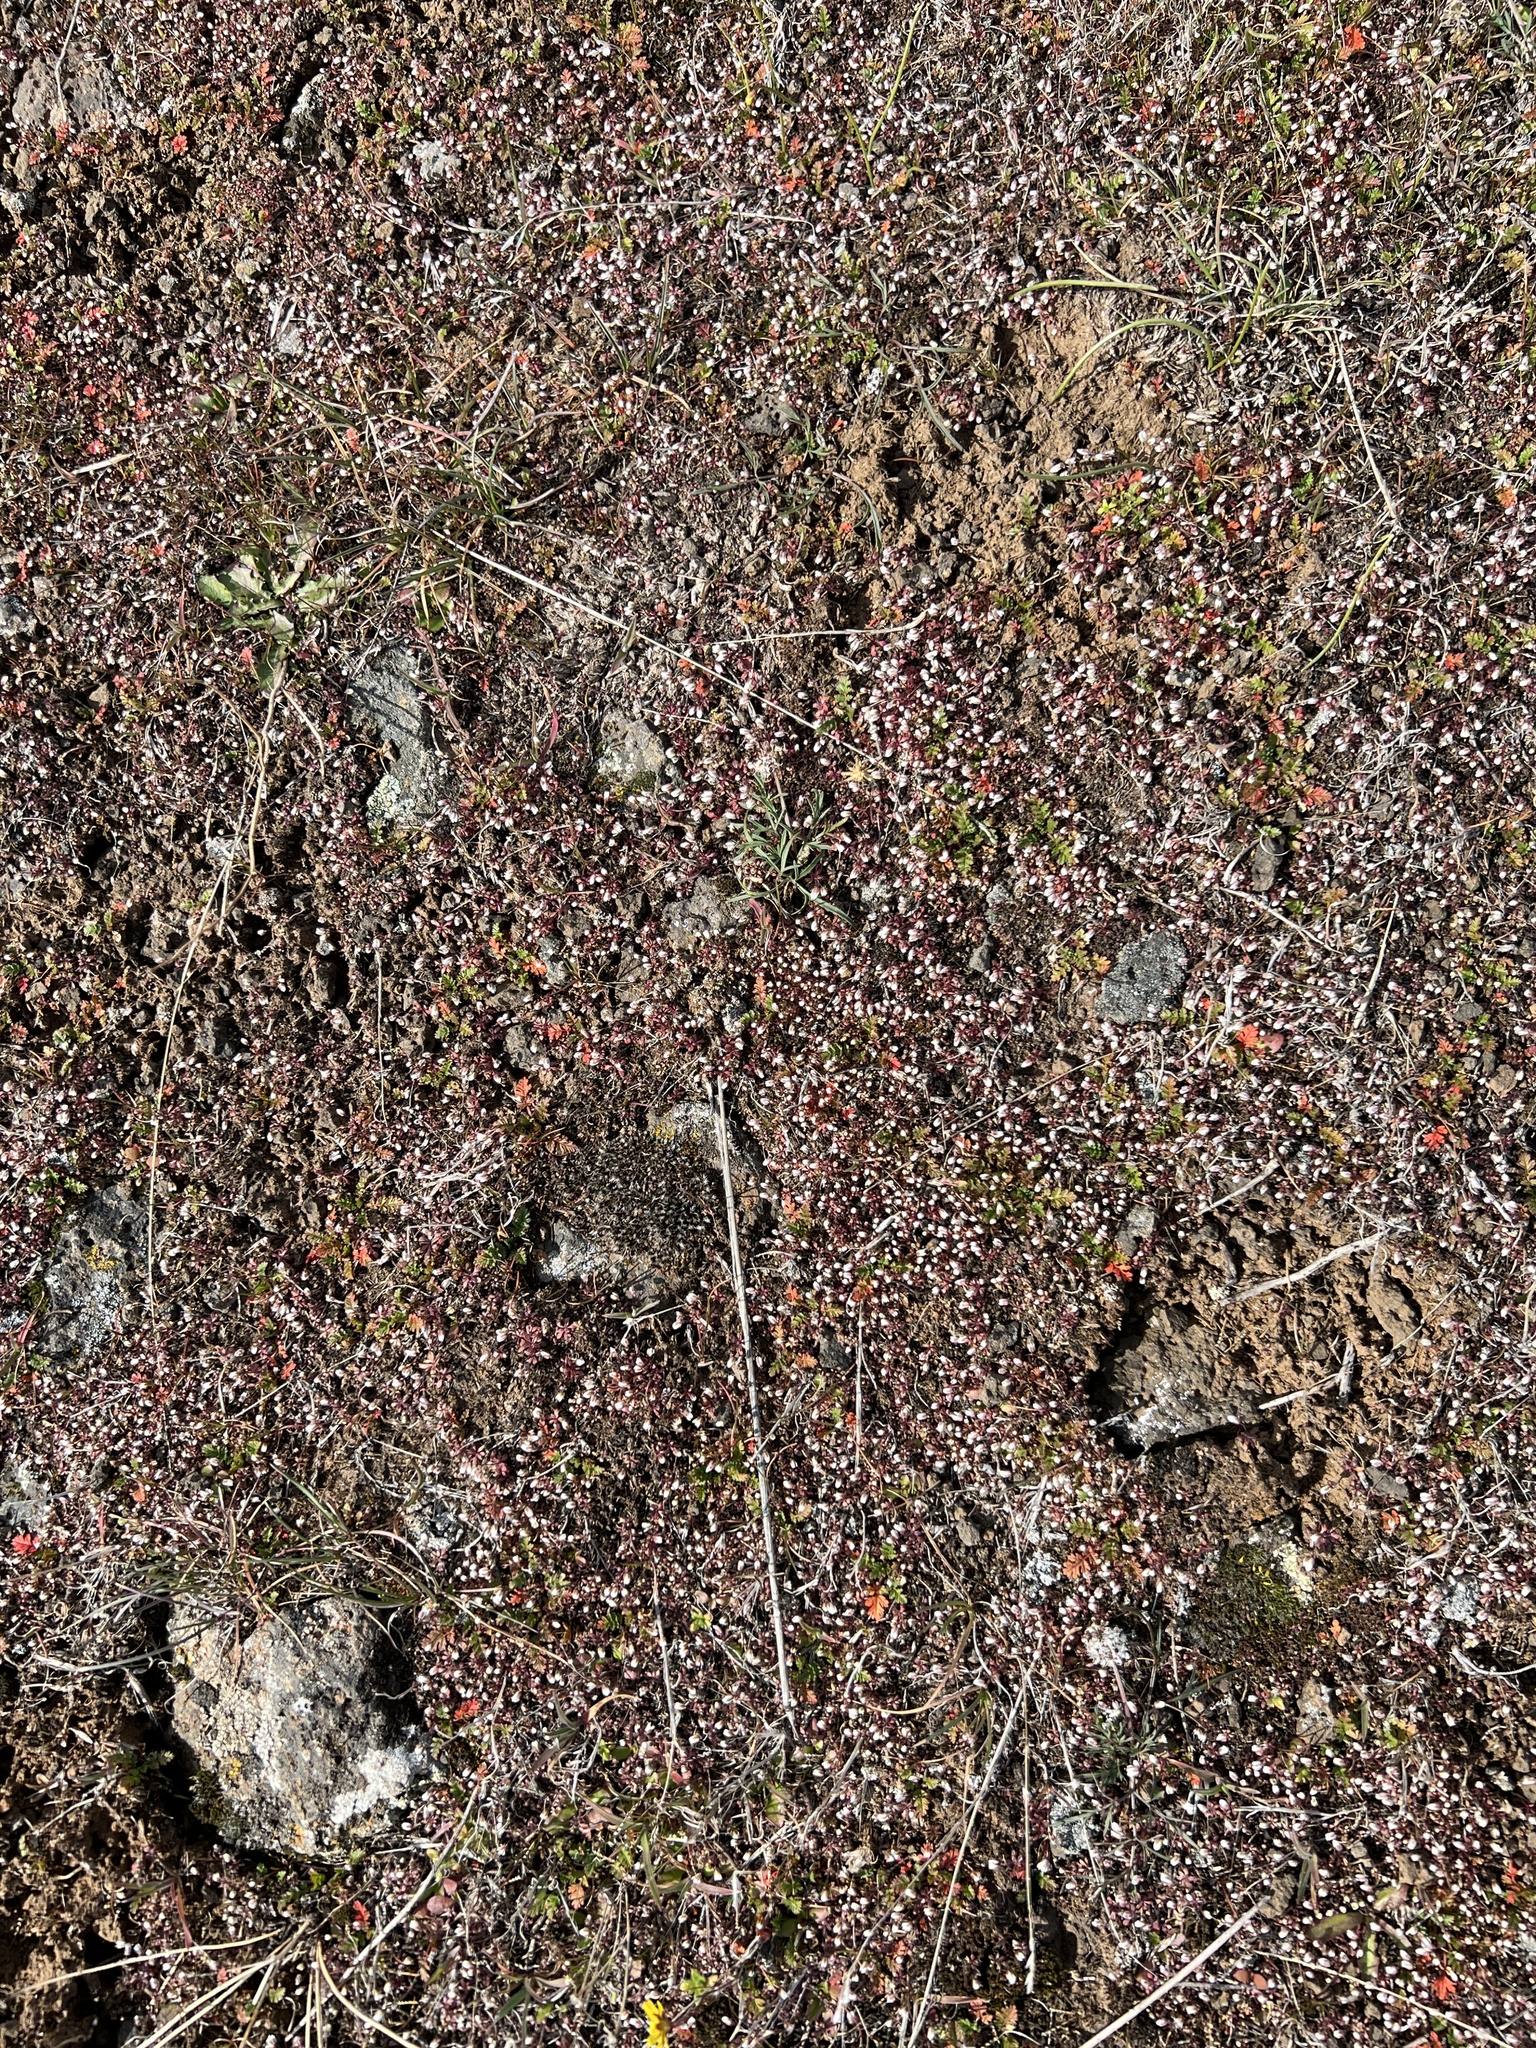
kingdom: Plantae
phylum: Tracheophyta
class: Magnoliopsida
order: Brassicales
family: Brassicaceae
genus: Draba
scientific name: Draba verna
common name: Spring draba
